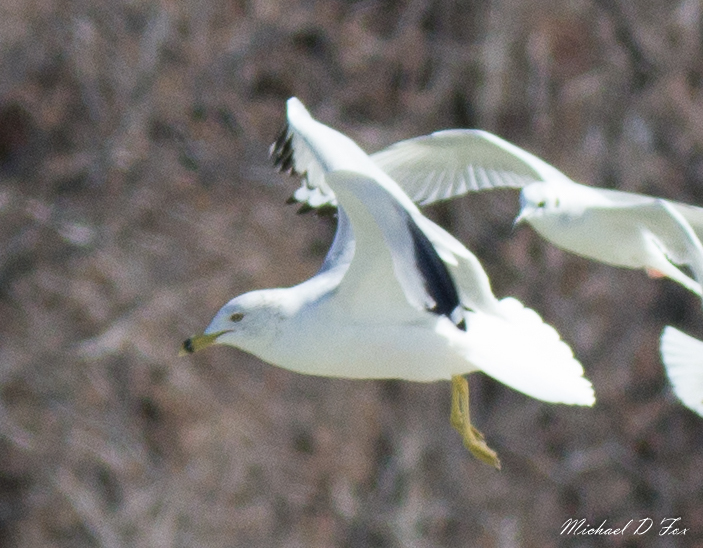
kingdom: Animalia
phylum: Chordata
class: Aves
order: Charadriiformes
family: Laridae
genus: Larus
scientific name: Larus delawarensis
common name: Ring-billed gull
